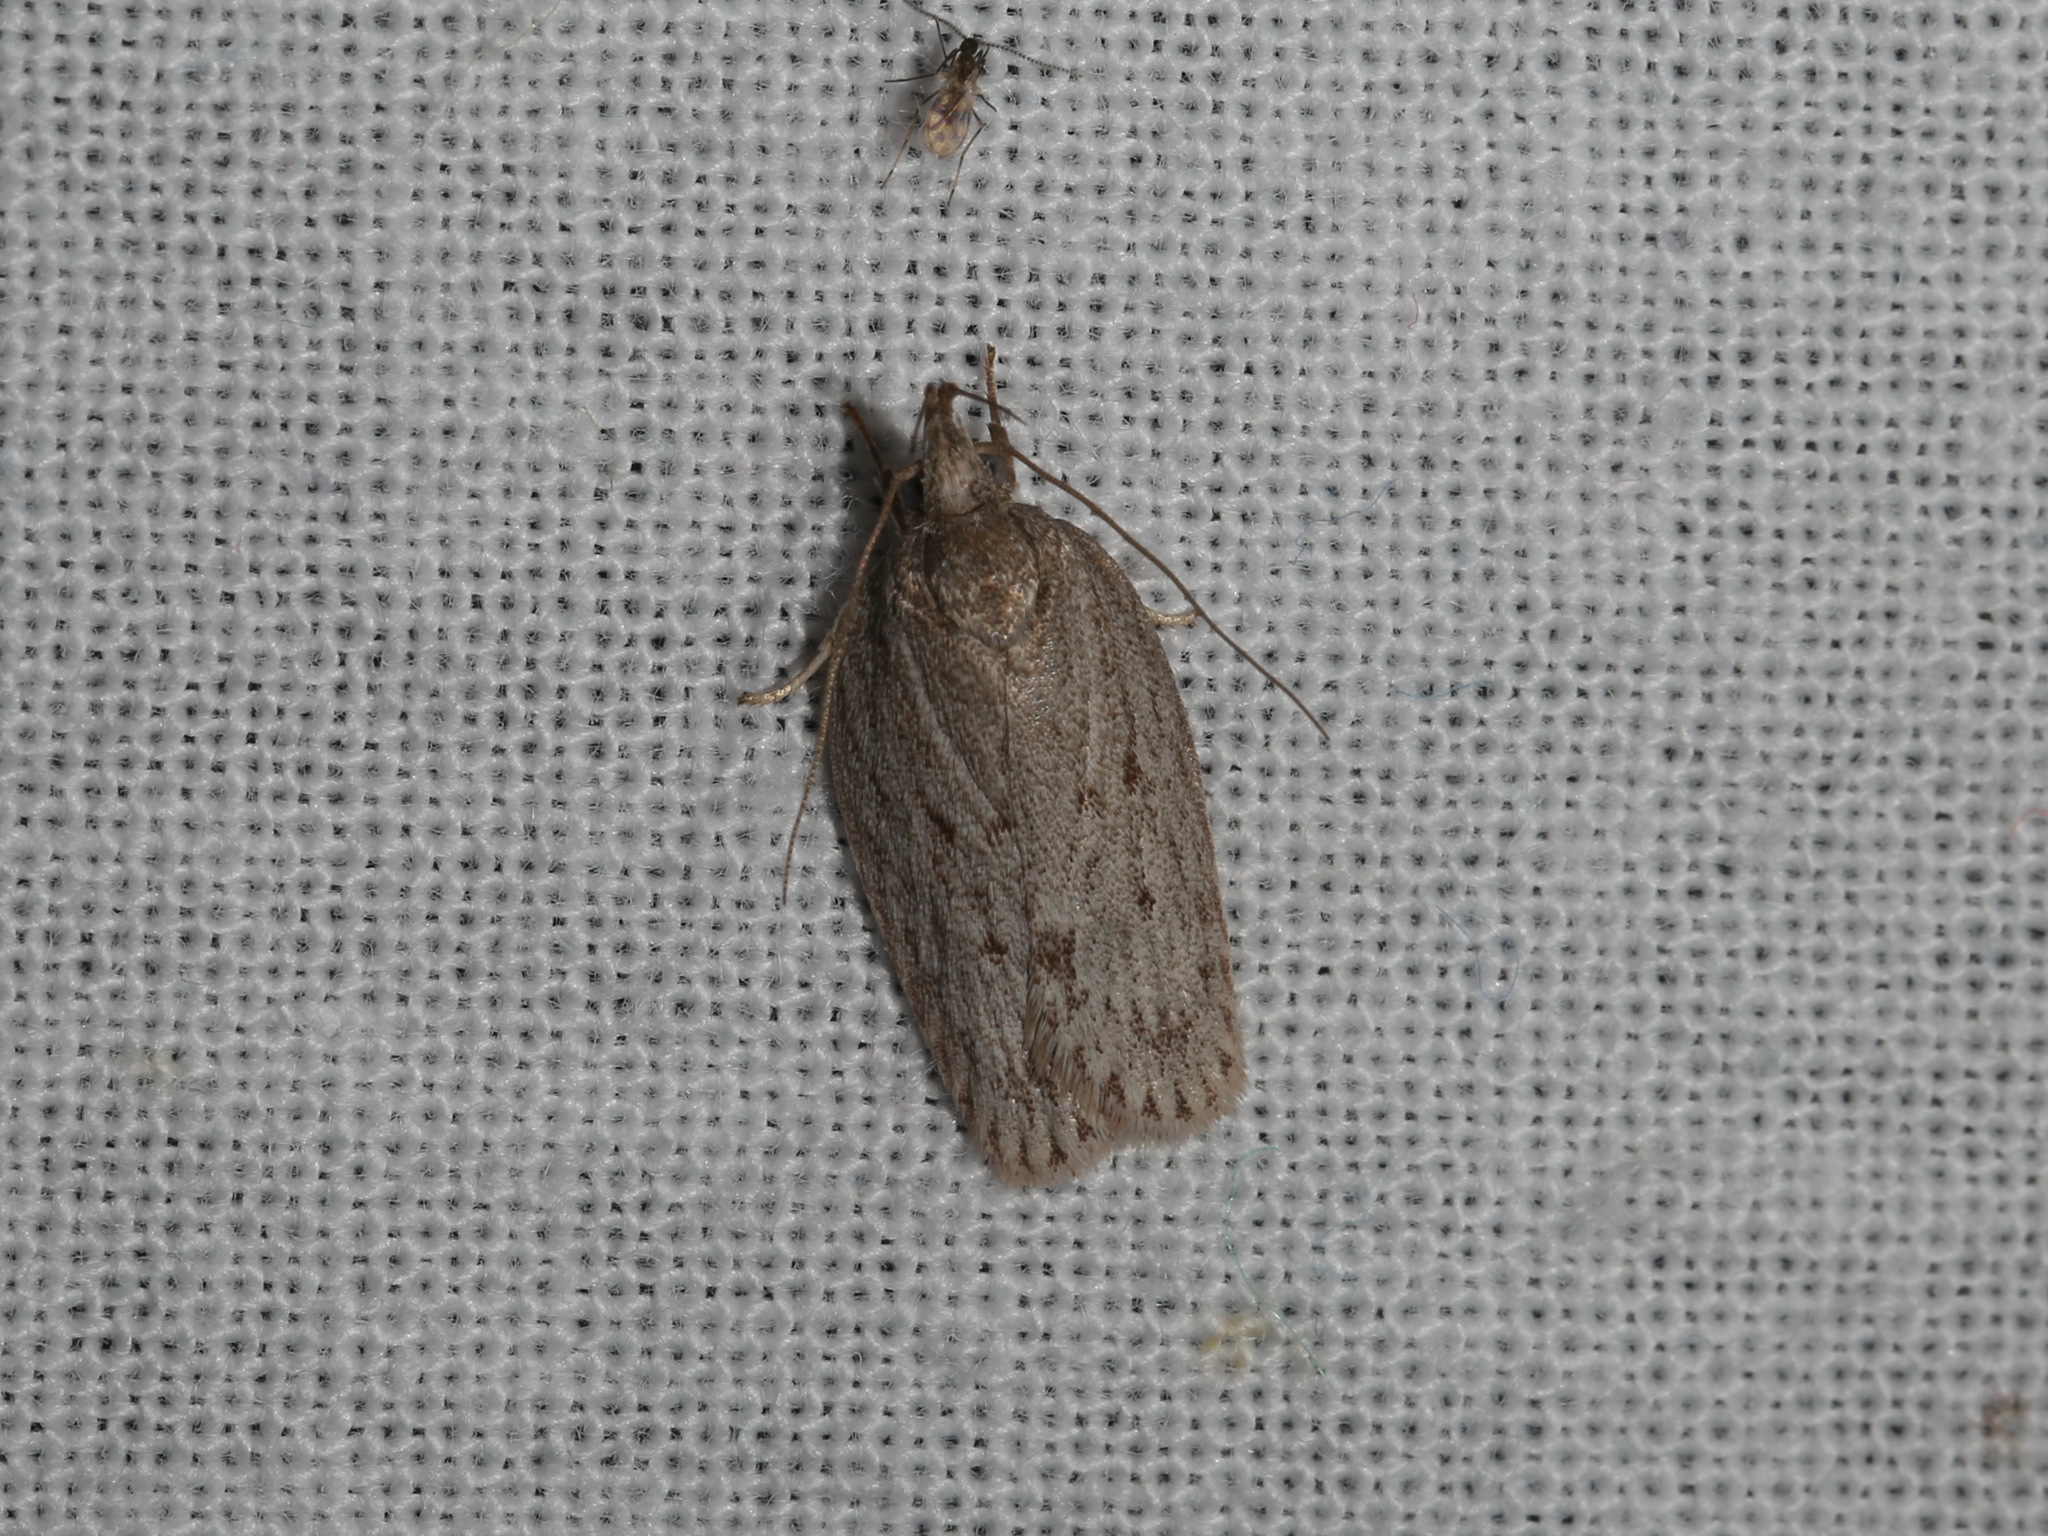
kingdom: Animalia
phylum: Arthropoda
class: Insecta
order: Lepidoptera
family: Depressariidae
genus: Pedois
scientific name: Pedois lewinella
